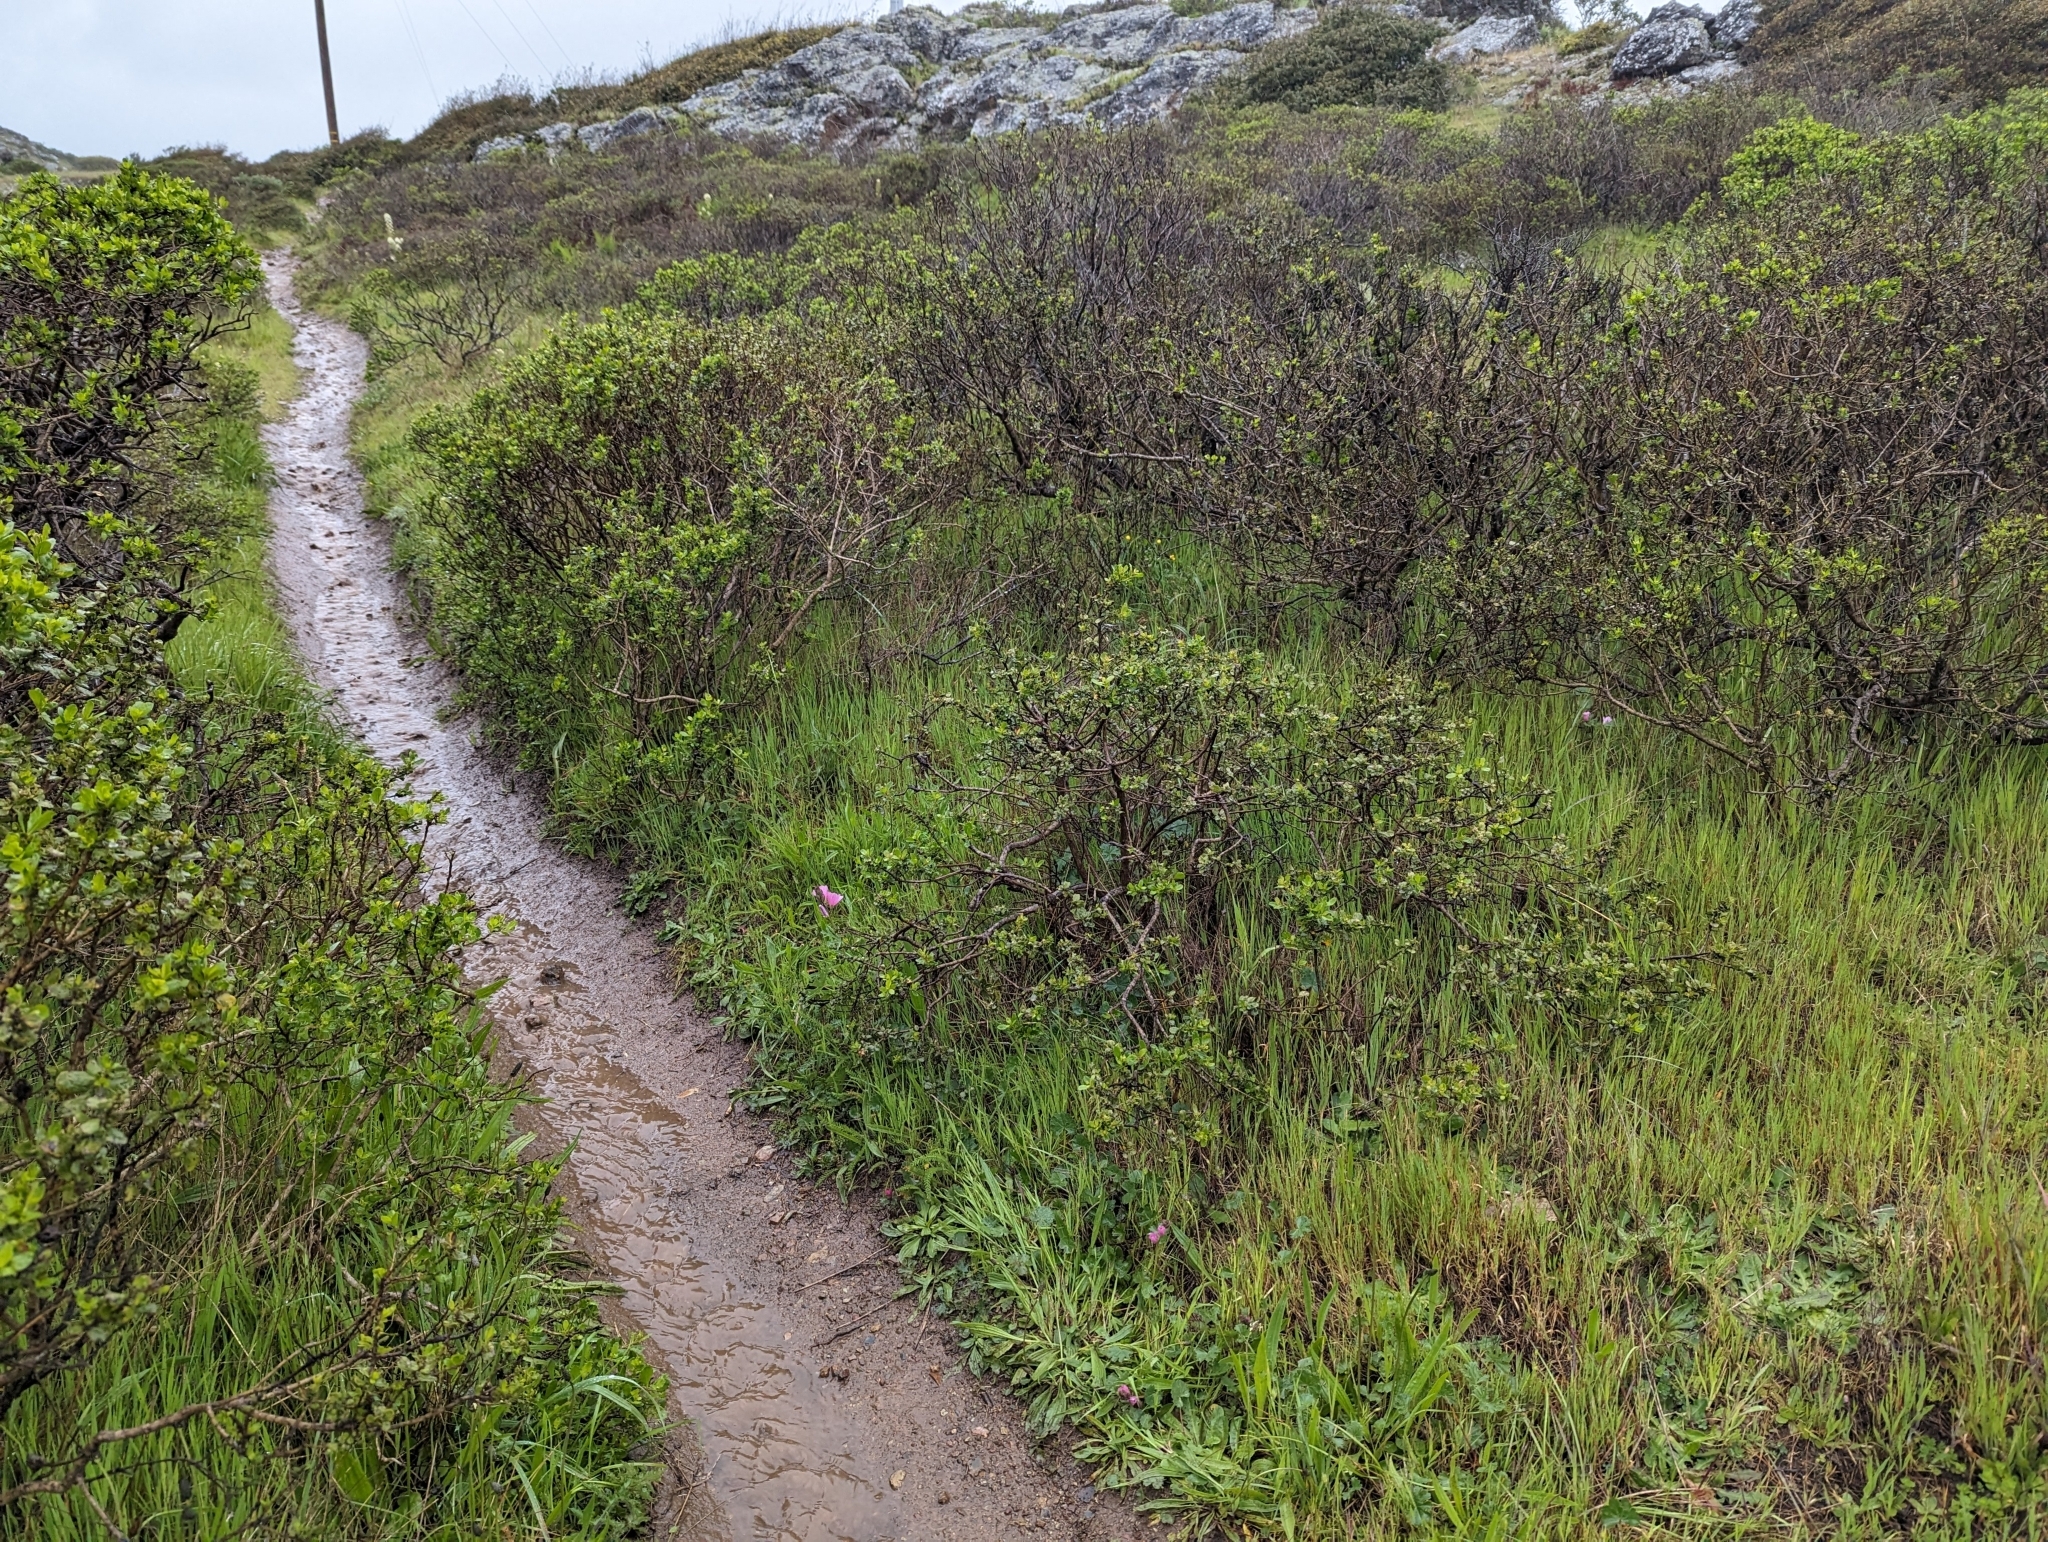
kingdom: Plantae
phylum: Tracheophyta
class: Magnoliopsida
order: Malvales
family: Malvaceae
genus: Sidalcea
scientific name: Sidalcea malviflora
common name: Greek mallow
